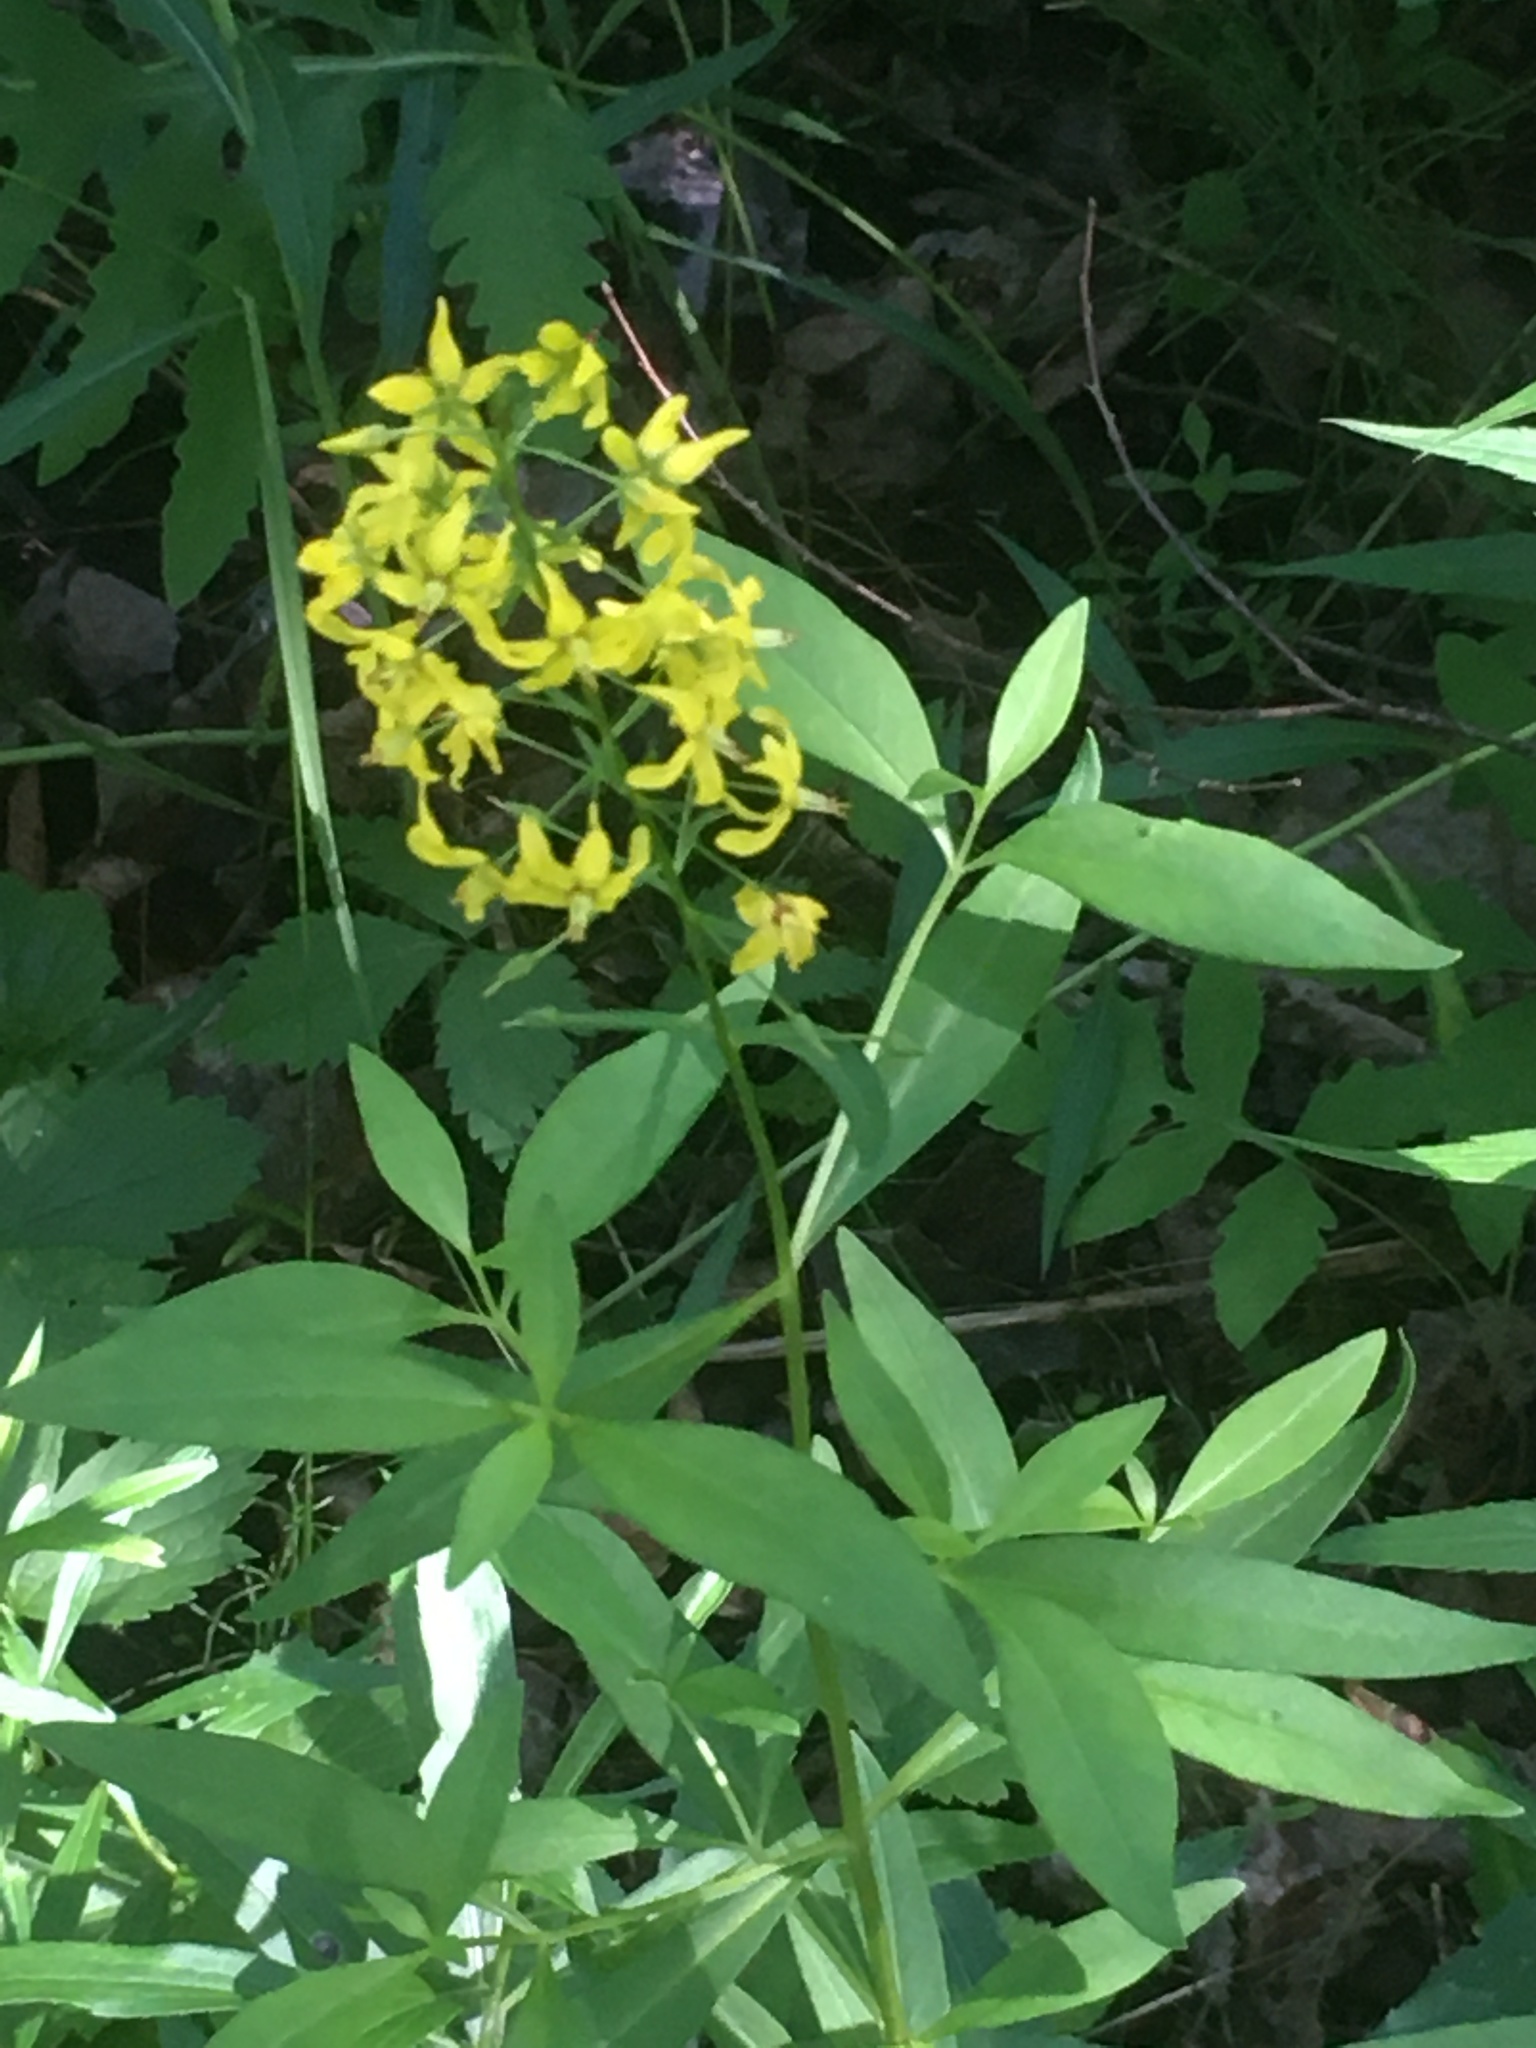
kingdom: Plantae
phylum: Tracheophyta
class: Magnoliopsida
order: Ericales
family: Primulaceae
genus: Lysimachia
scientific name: Lysimachia terrestris
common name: Lake loosestrife
